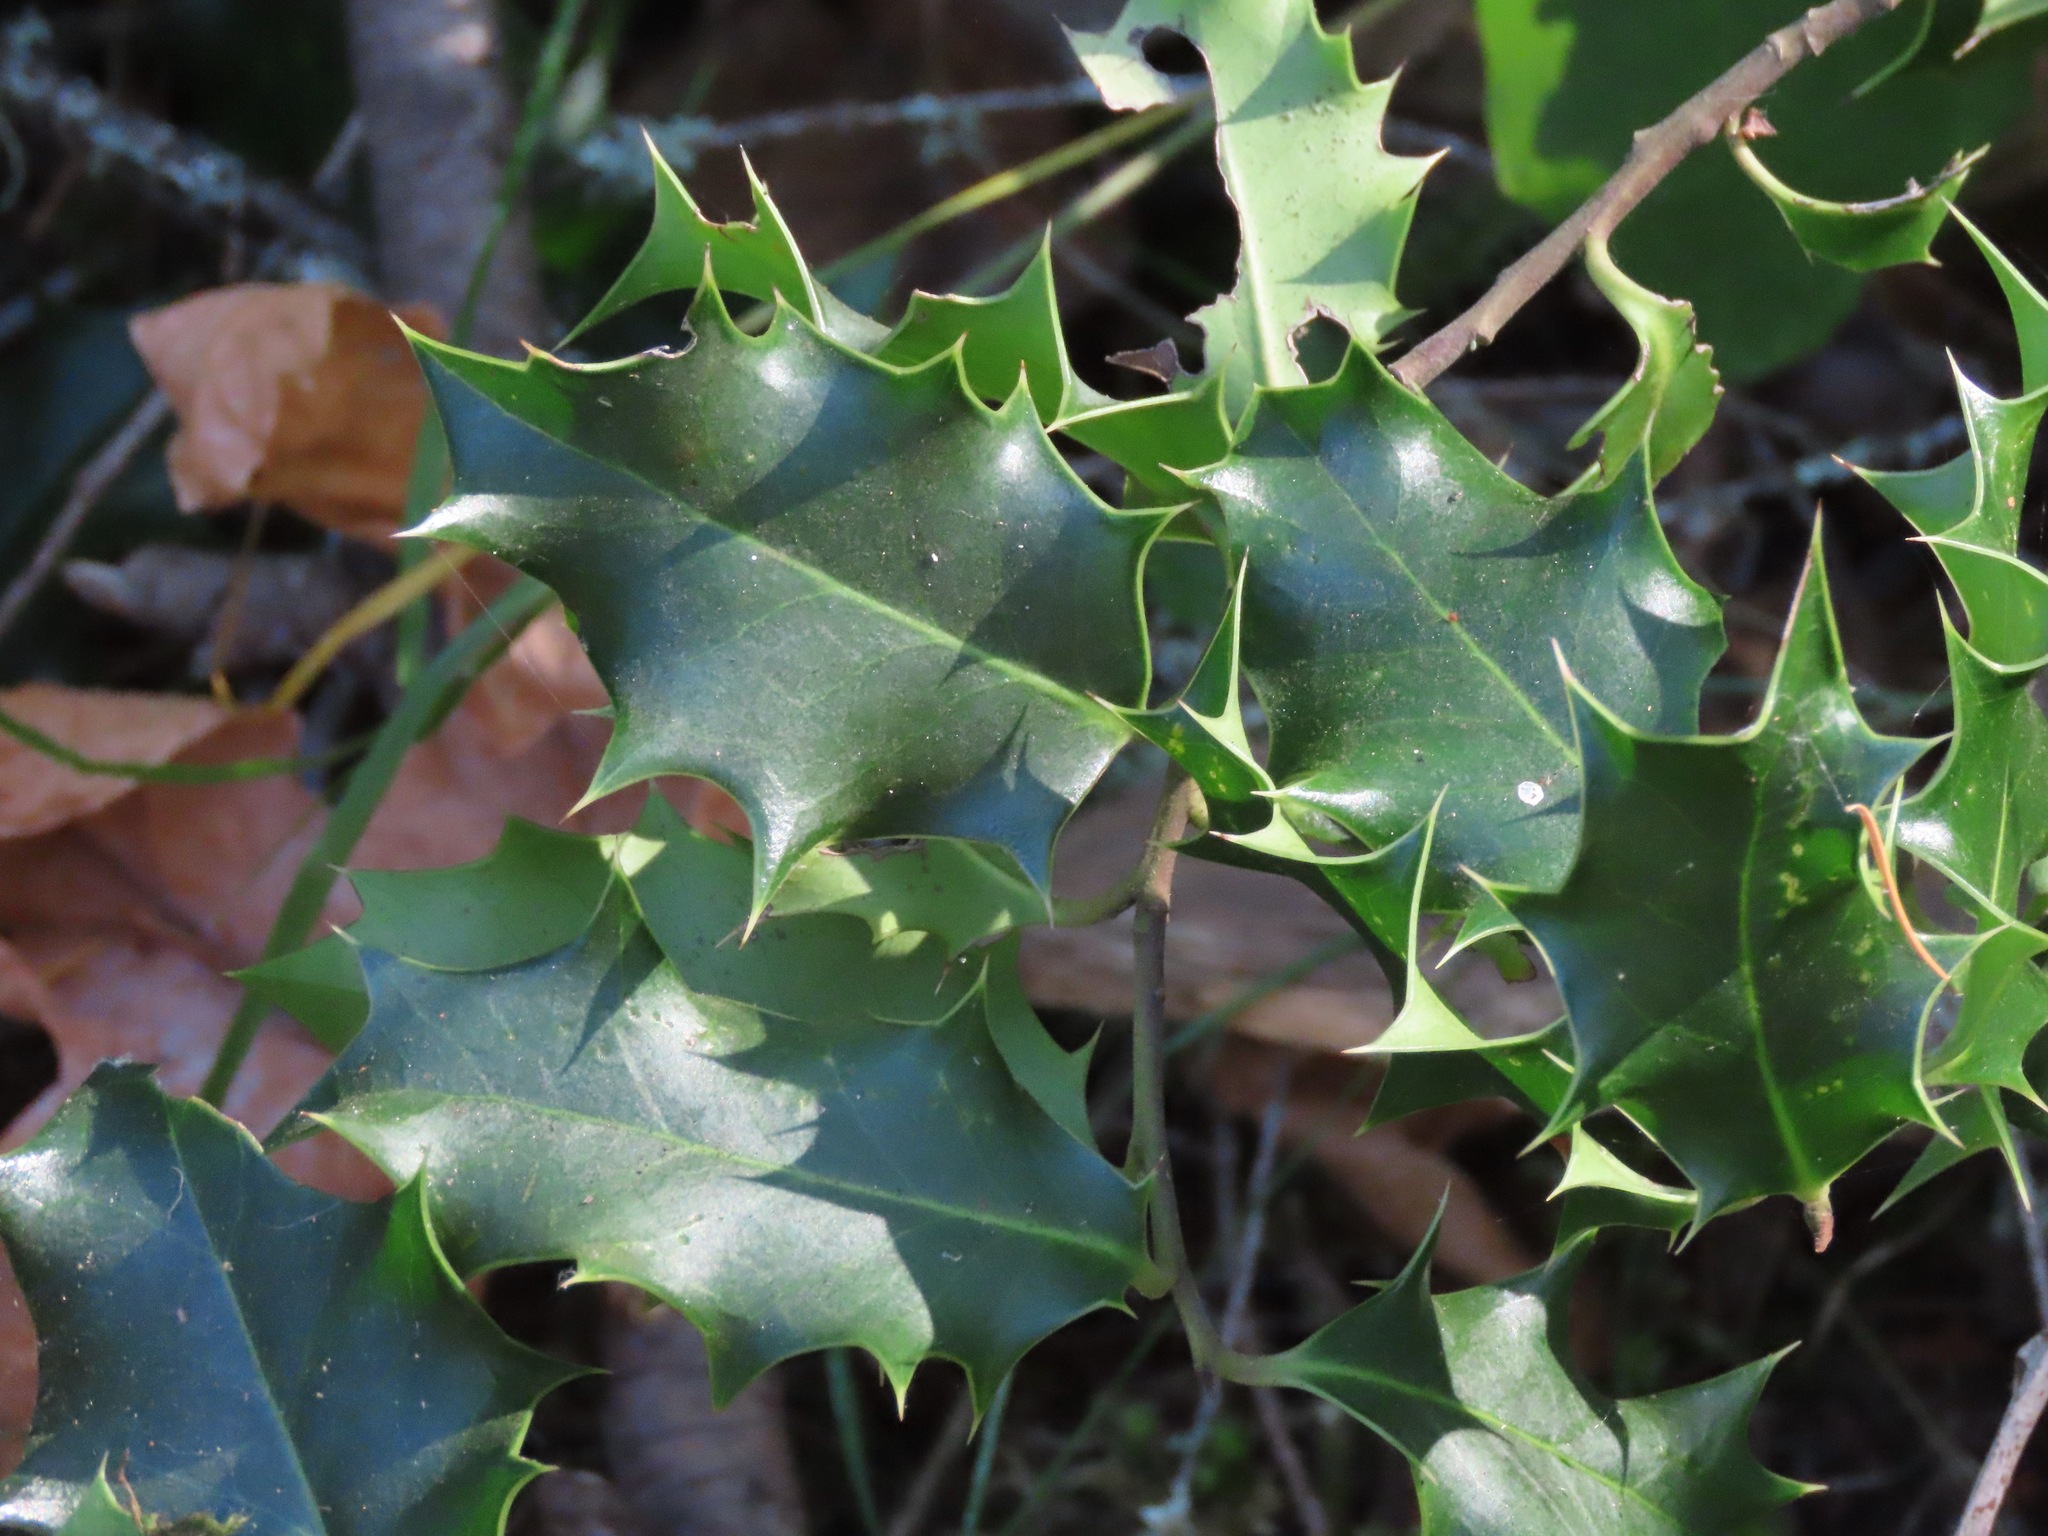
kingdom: Plantae
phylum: Tracheophyta
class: Magnoliopsida
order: Aquifoliales
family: Aquifoliaceae
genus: Ilex
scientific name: Ilex aquifolium
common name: English holly
